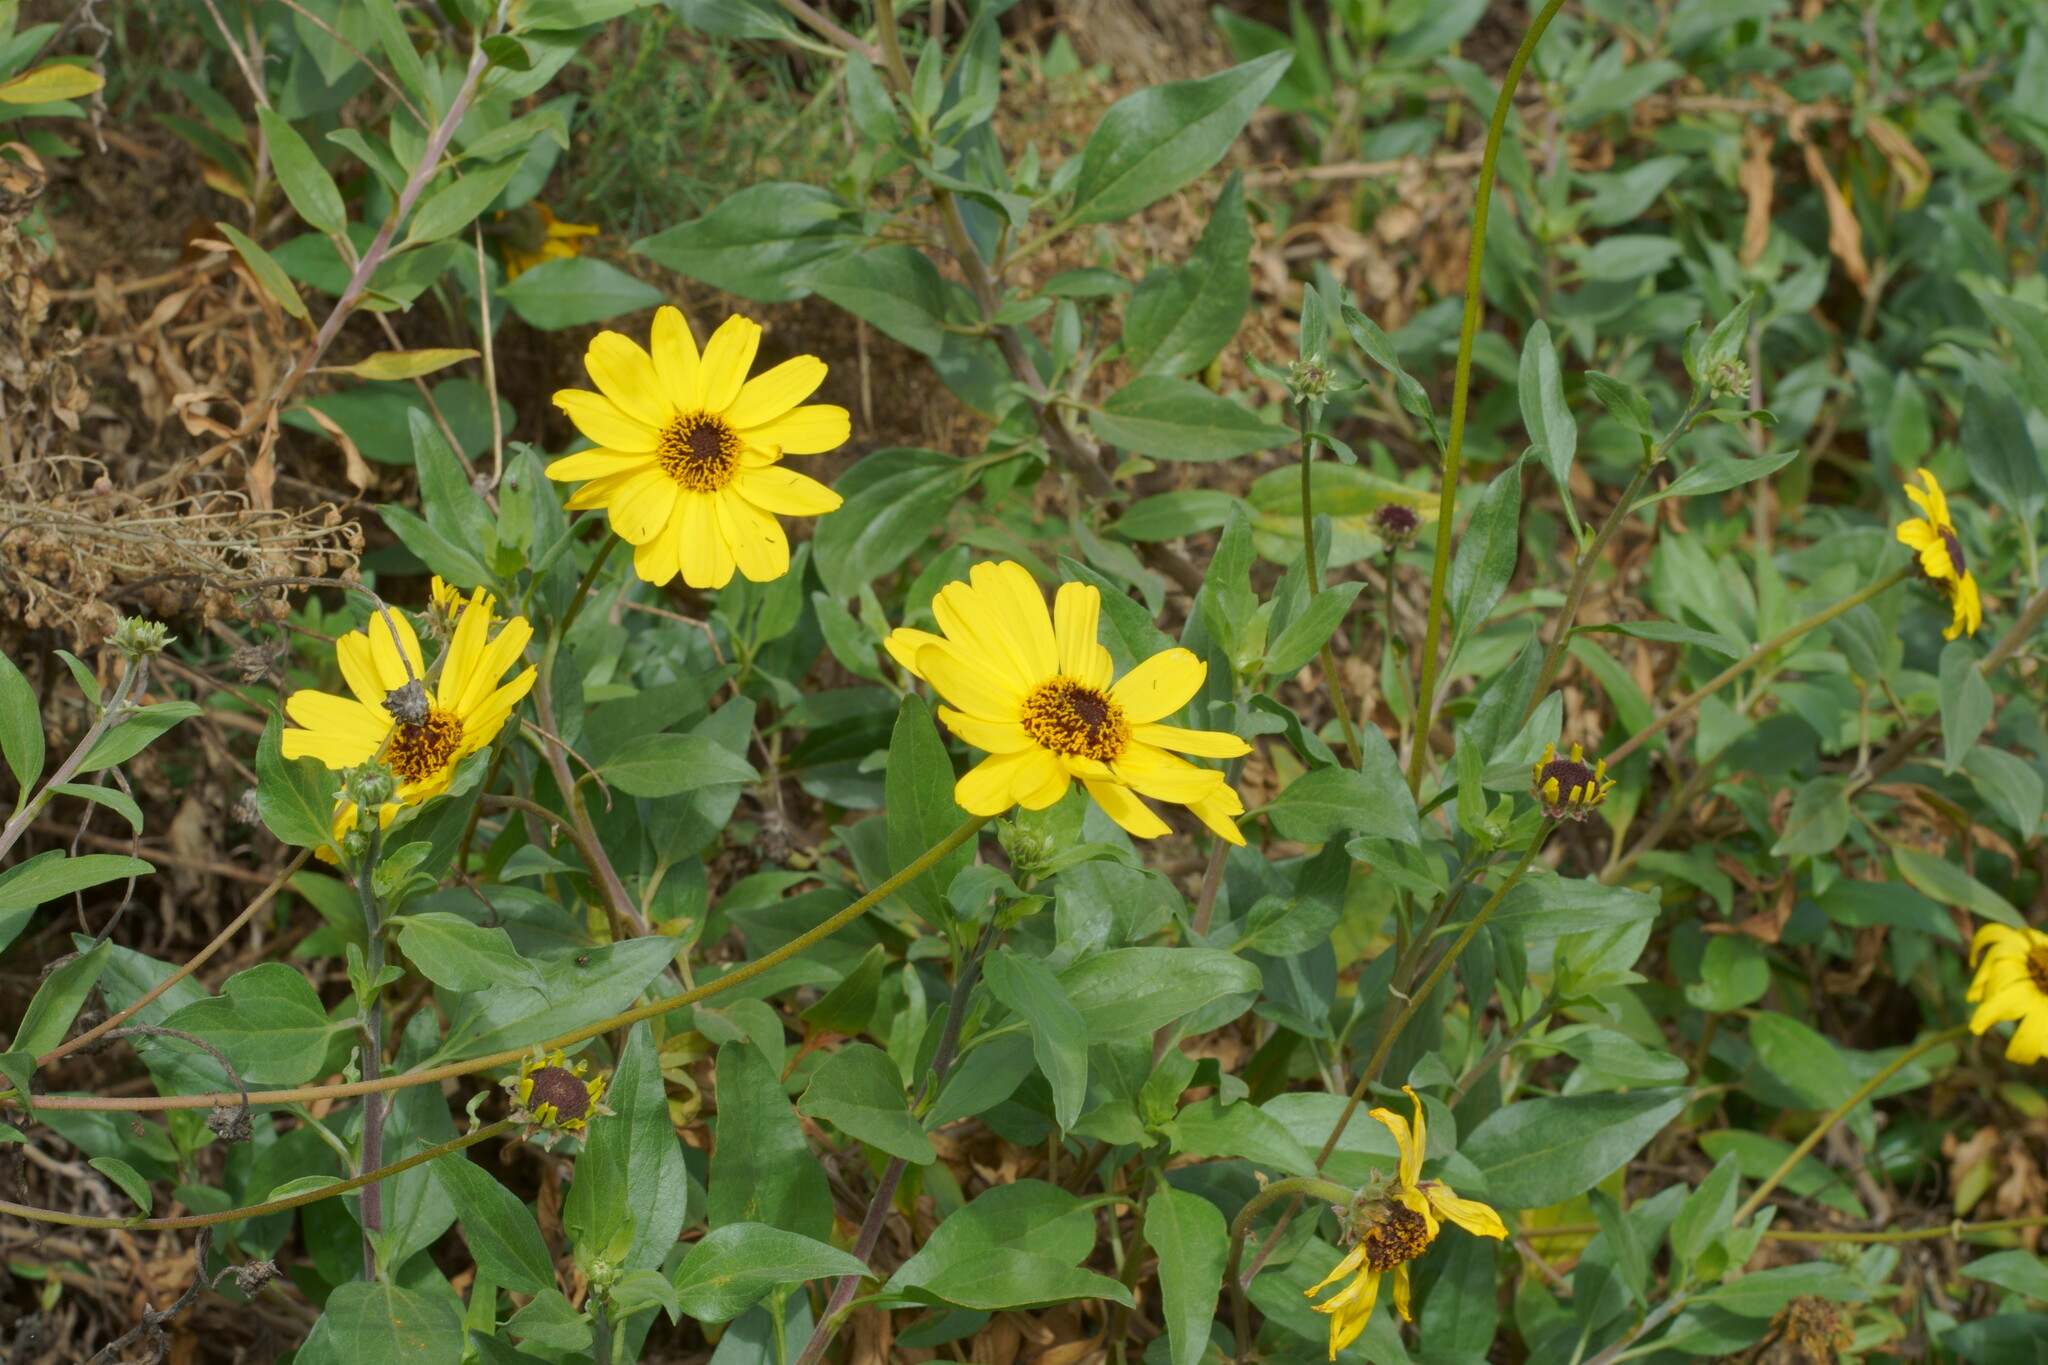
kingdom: Plantae
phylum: Tracheophyta
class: Magnoliopsida
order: Asterales
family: Asteraceae
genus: Encelia
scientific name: Encelia californica
